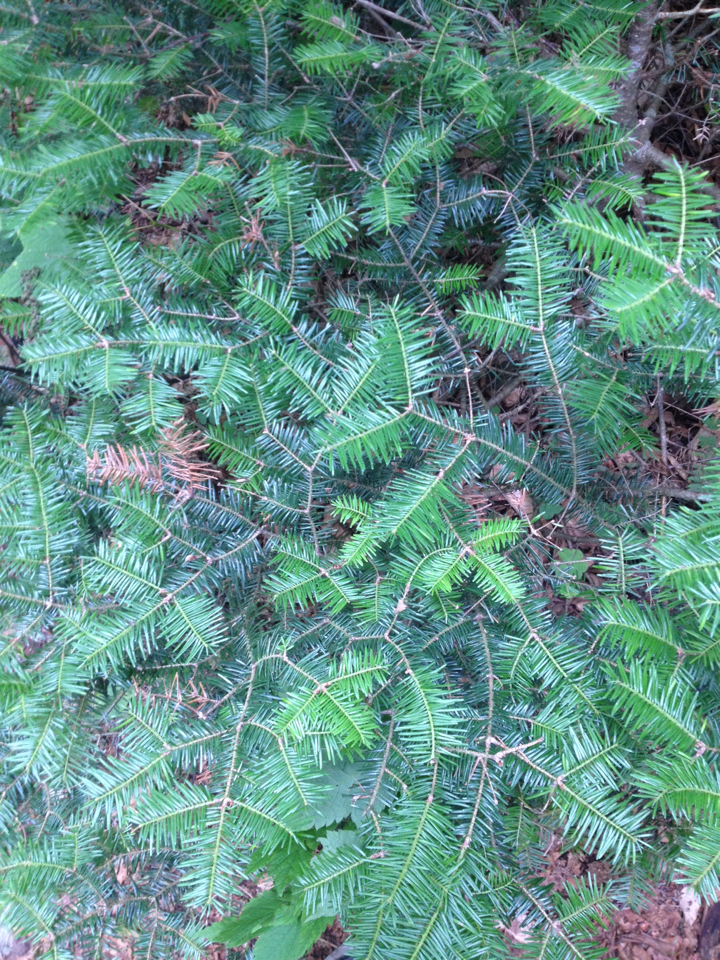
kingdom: Plantae
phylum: Tracheophyta
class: Pinopsida
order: Pinales
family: Pinaceae
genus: Abies
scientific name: Abies balsamea
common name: Balsam fir
